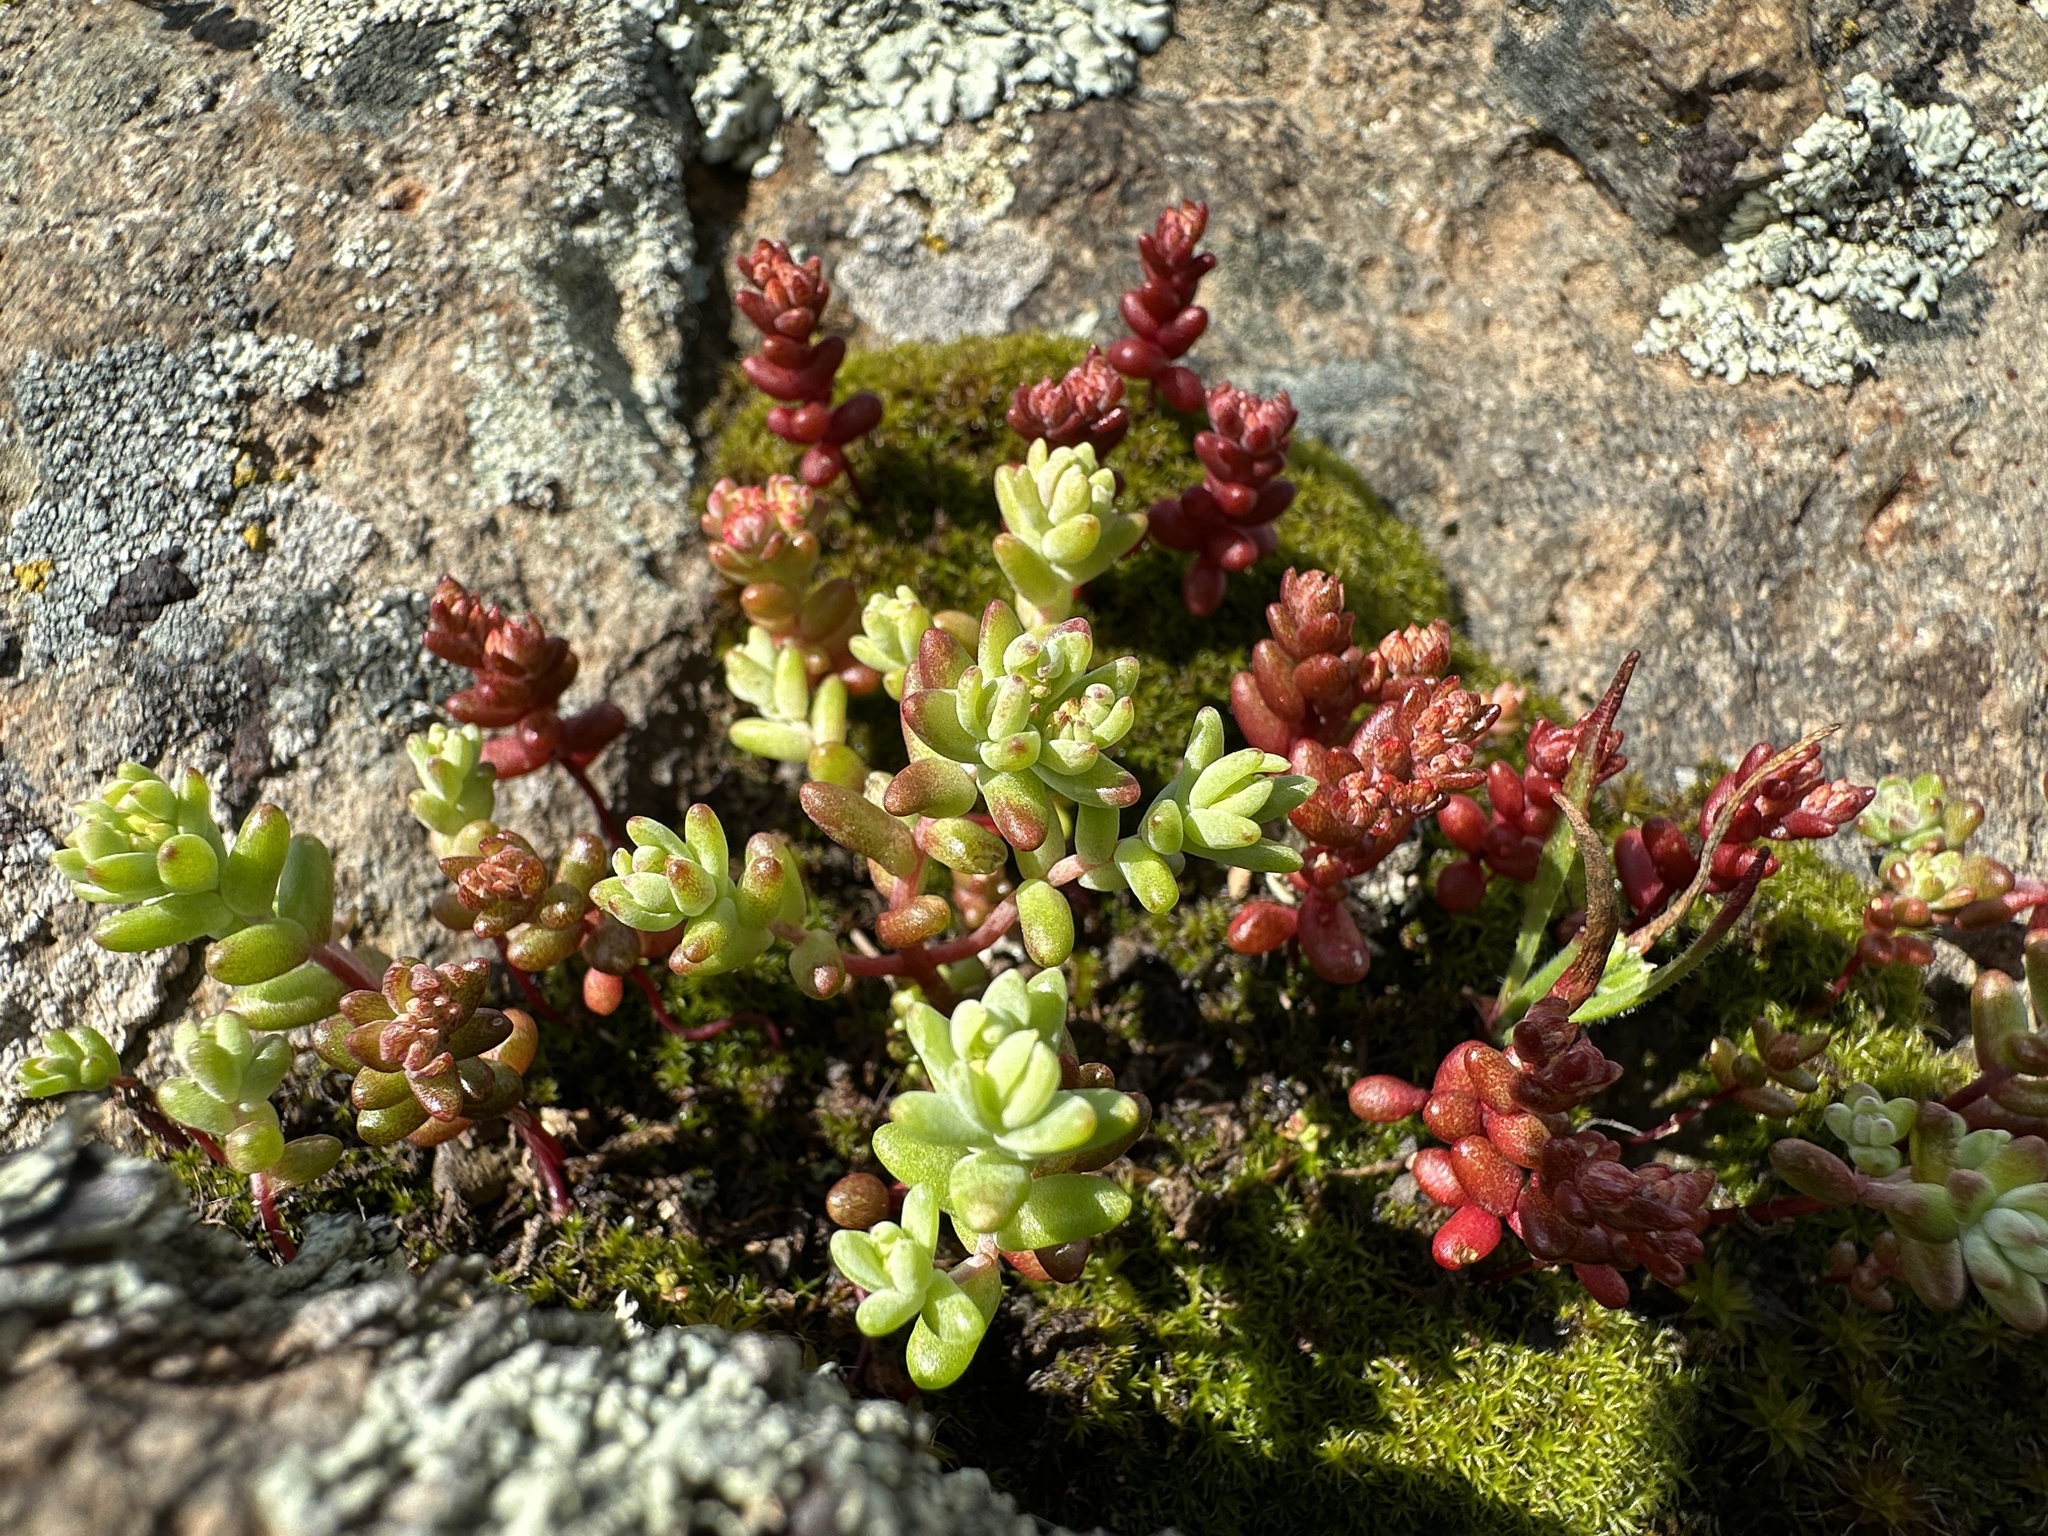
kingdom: Plantae
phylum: Tracheophyta
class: Magnoliopsida
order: Saxifragales
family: Crassulaceae
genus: Sedella
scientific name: Sedella pumila
